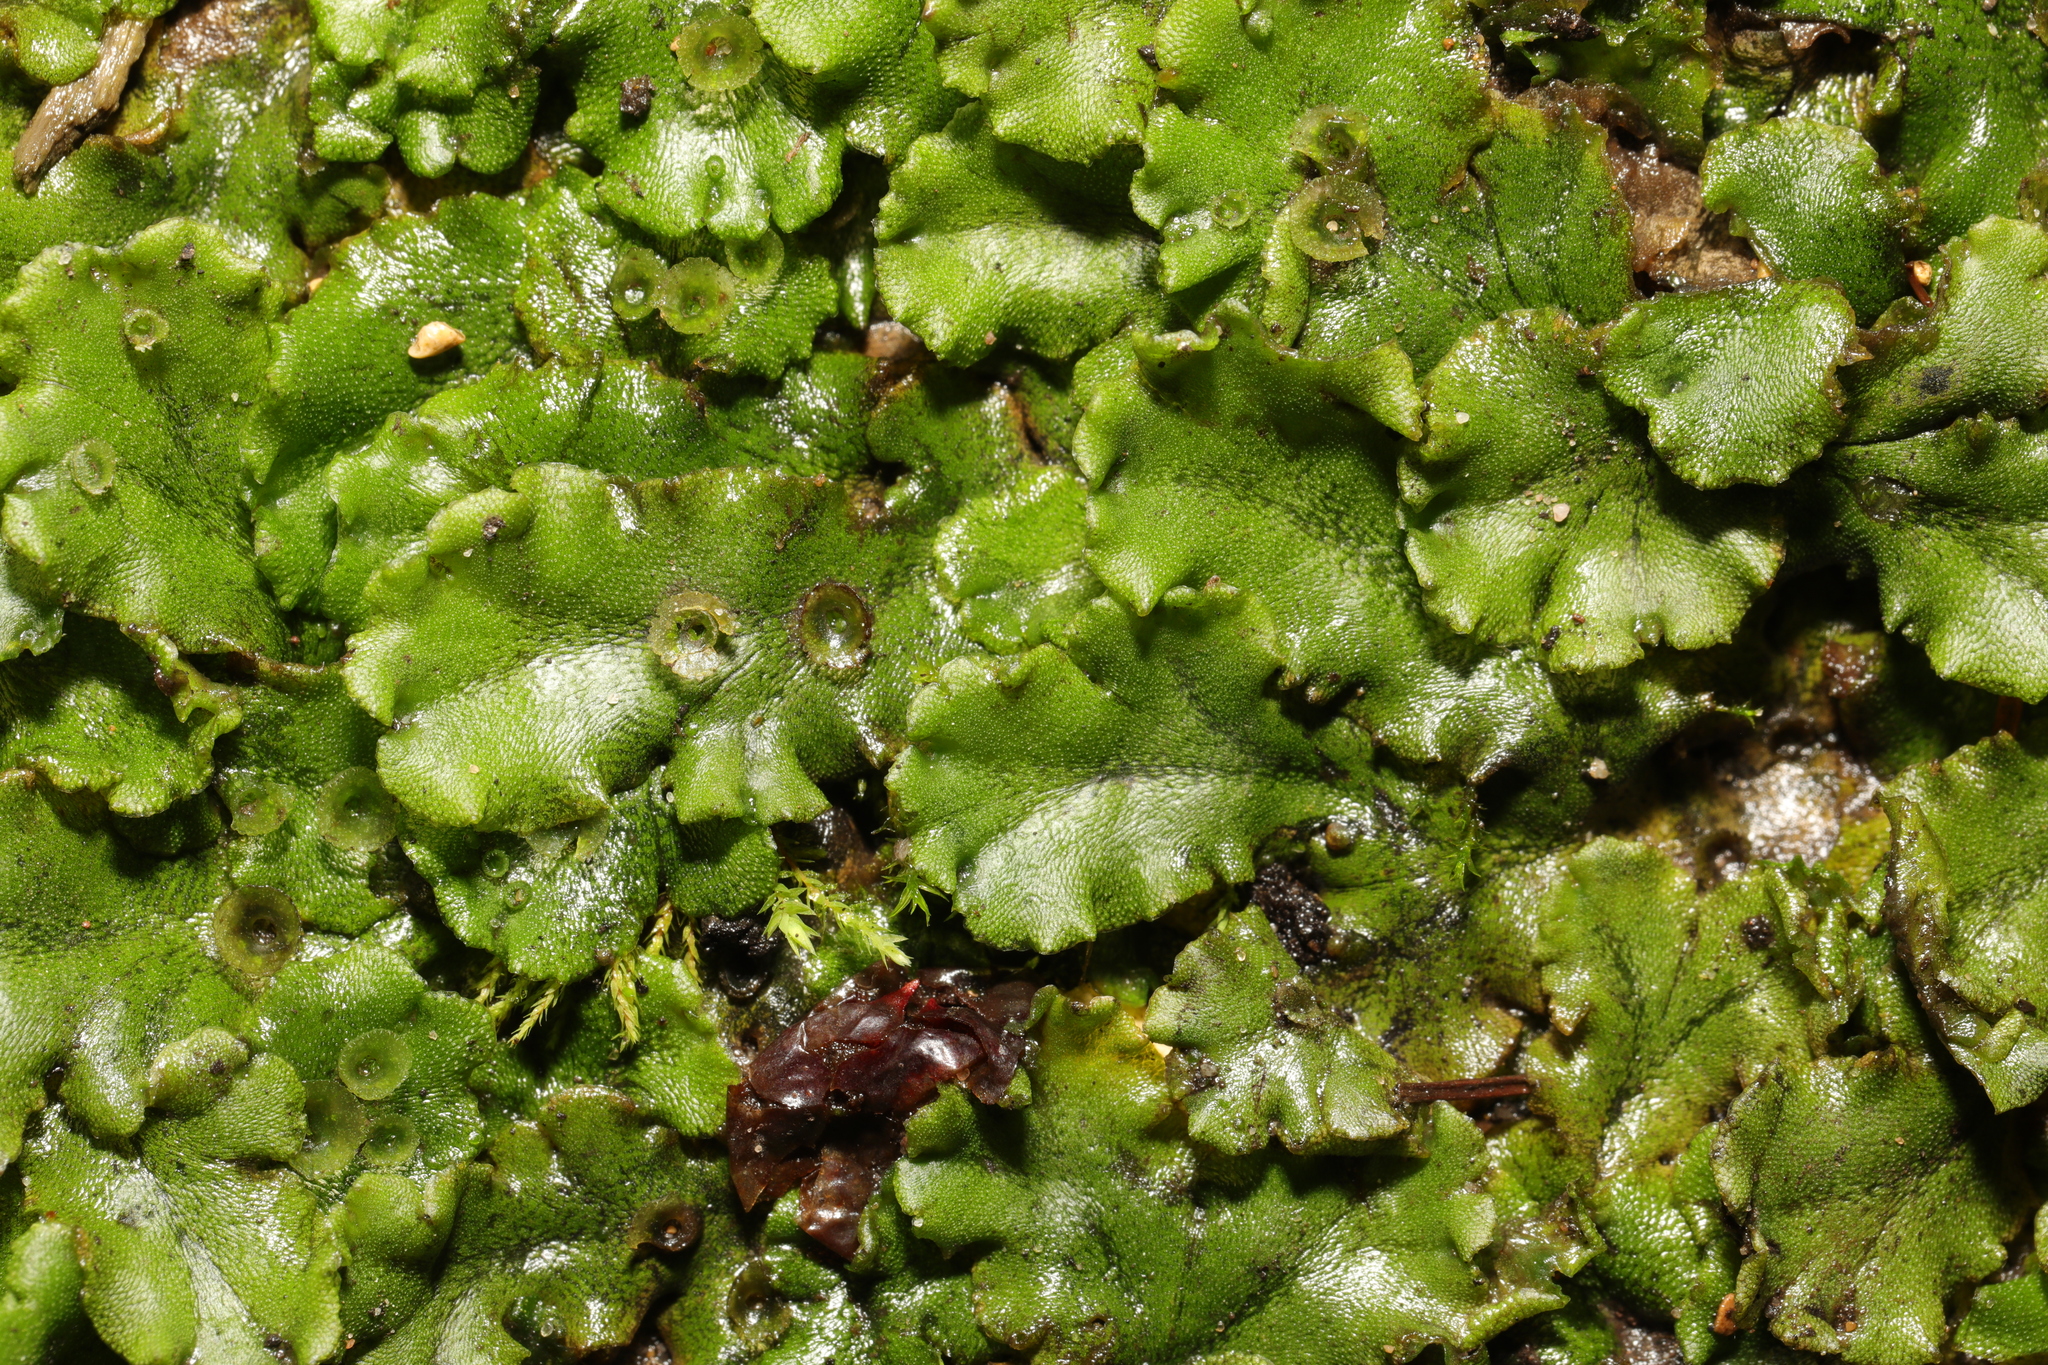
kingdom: Plantae
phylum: Marchantiophyta
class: Marchantiopsida
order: Marchantiales
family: Marchantiaceae
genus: Marchantia
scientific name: Marchantia polymorpha
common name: Common liverwort
